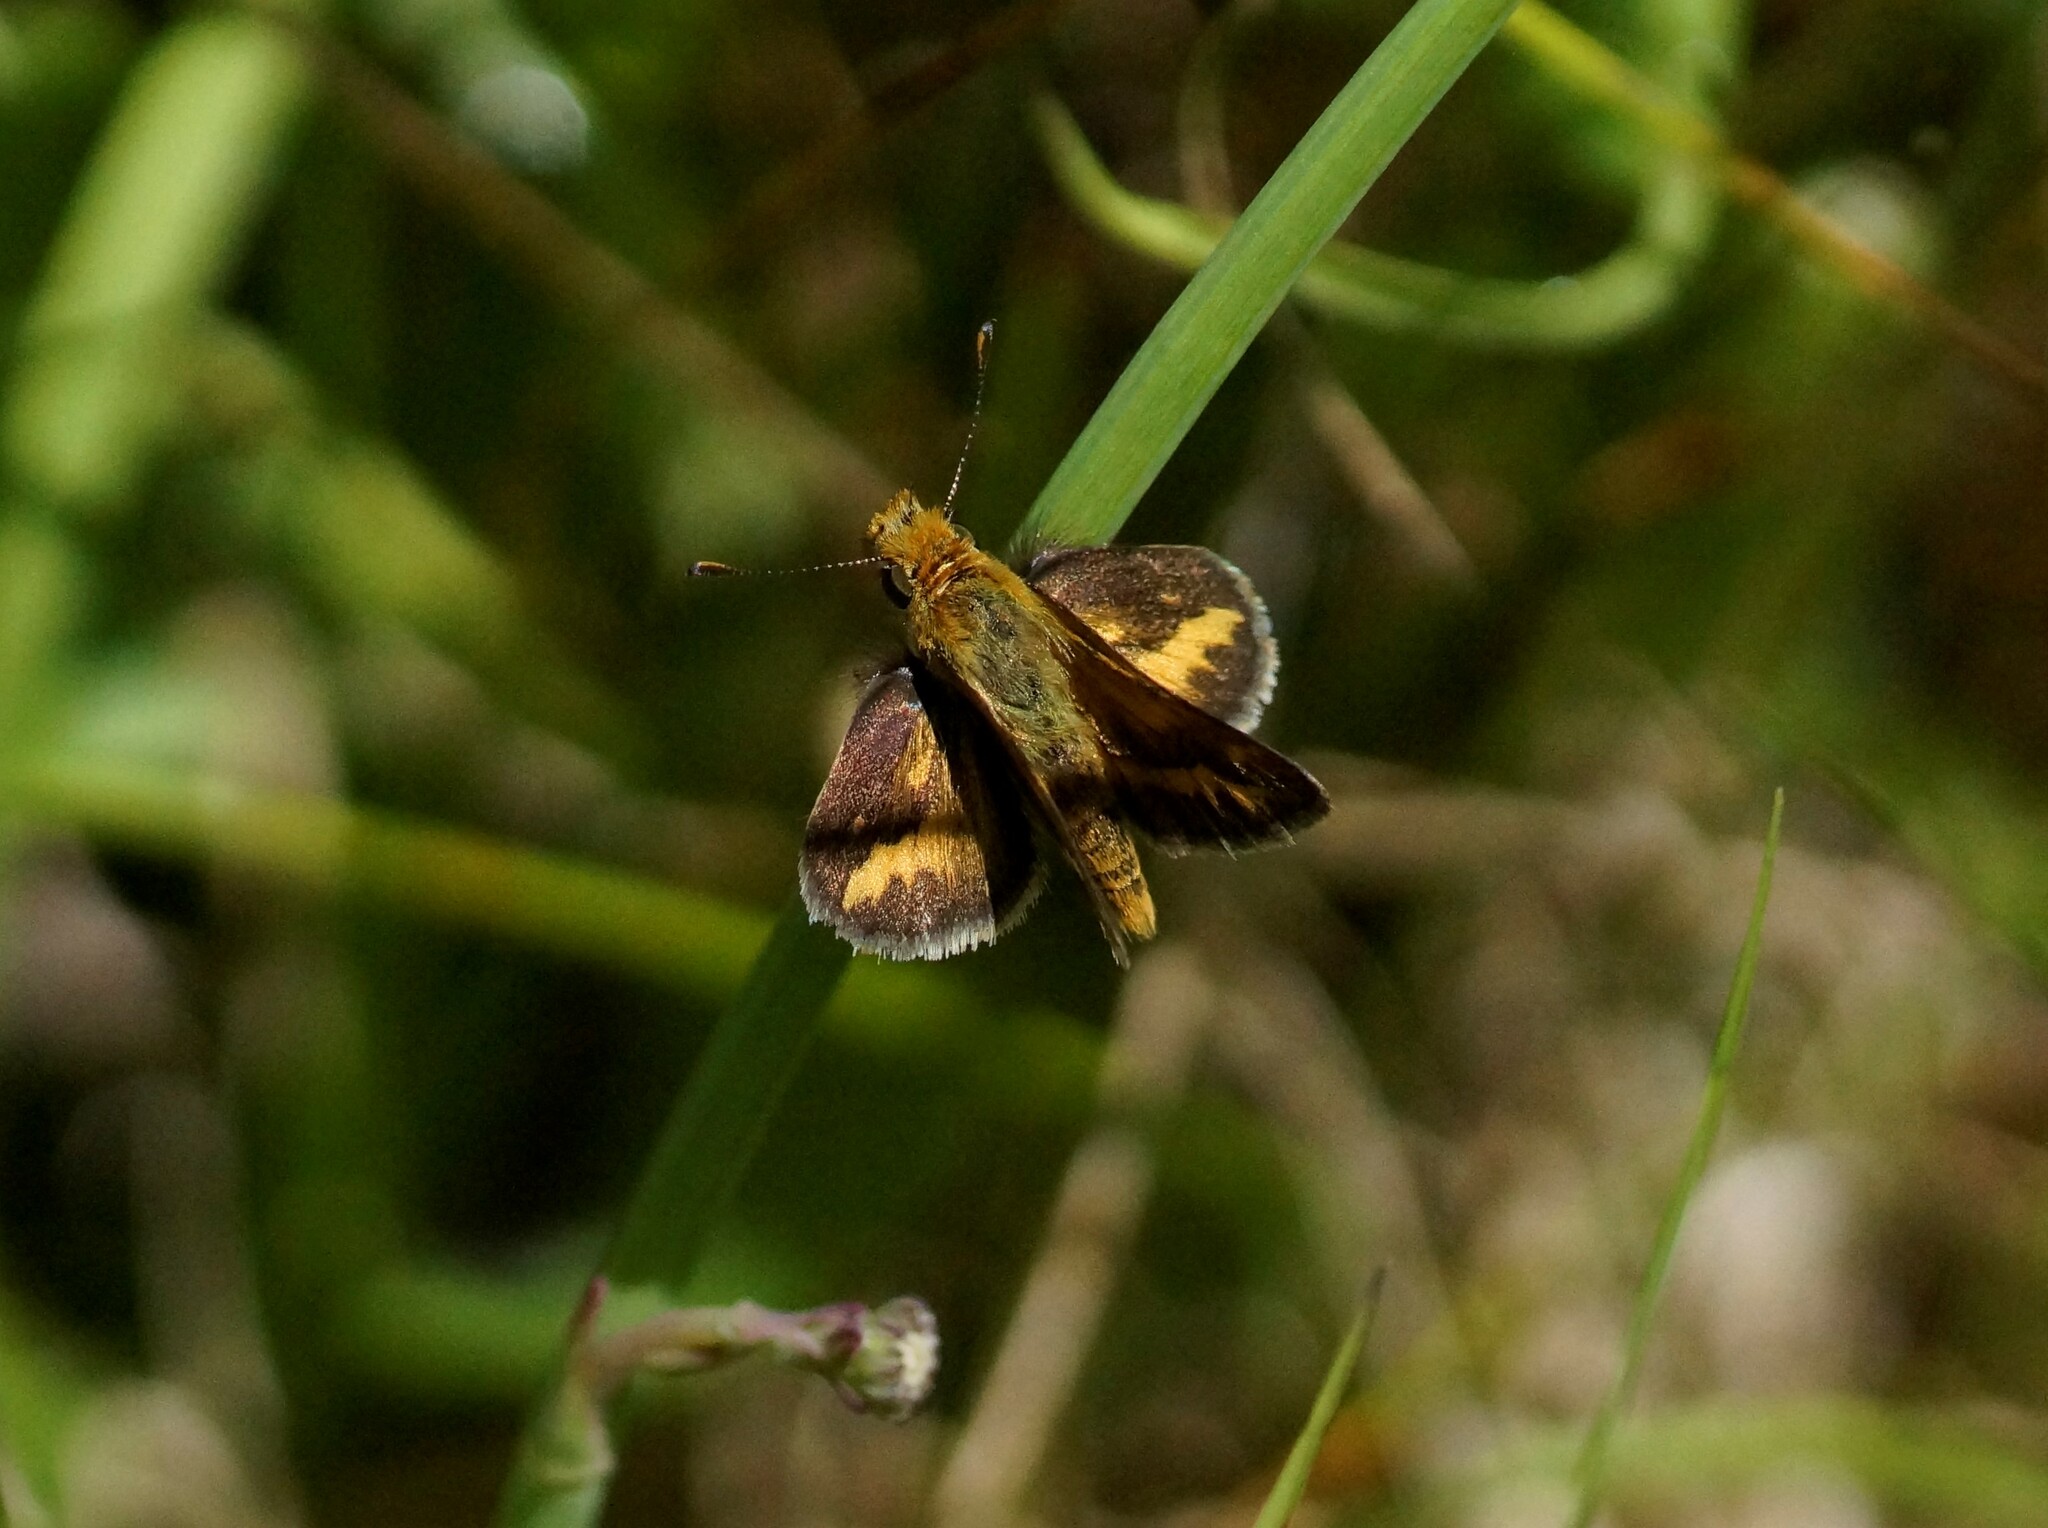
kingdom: Animalia
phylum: Arthropoda
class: Insecta
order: Lepidoptera
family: Hesperiidae
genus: Taractrocera
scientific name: Taractrocera papyria
